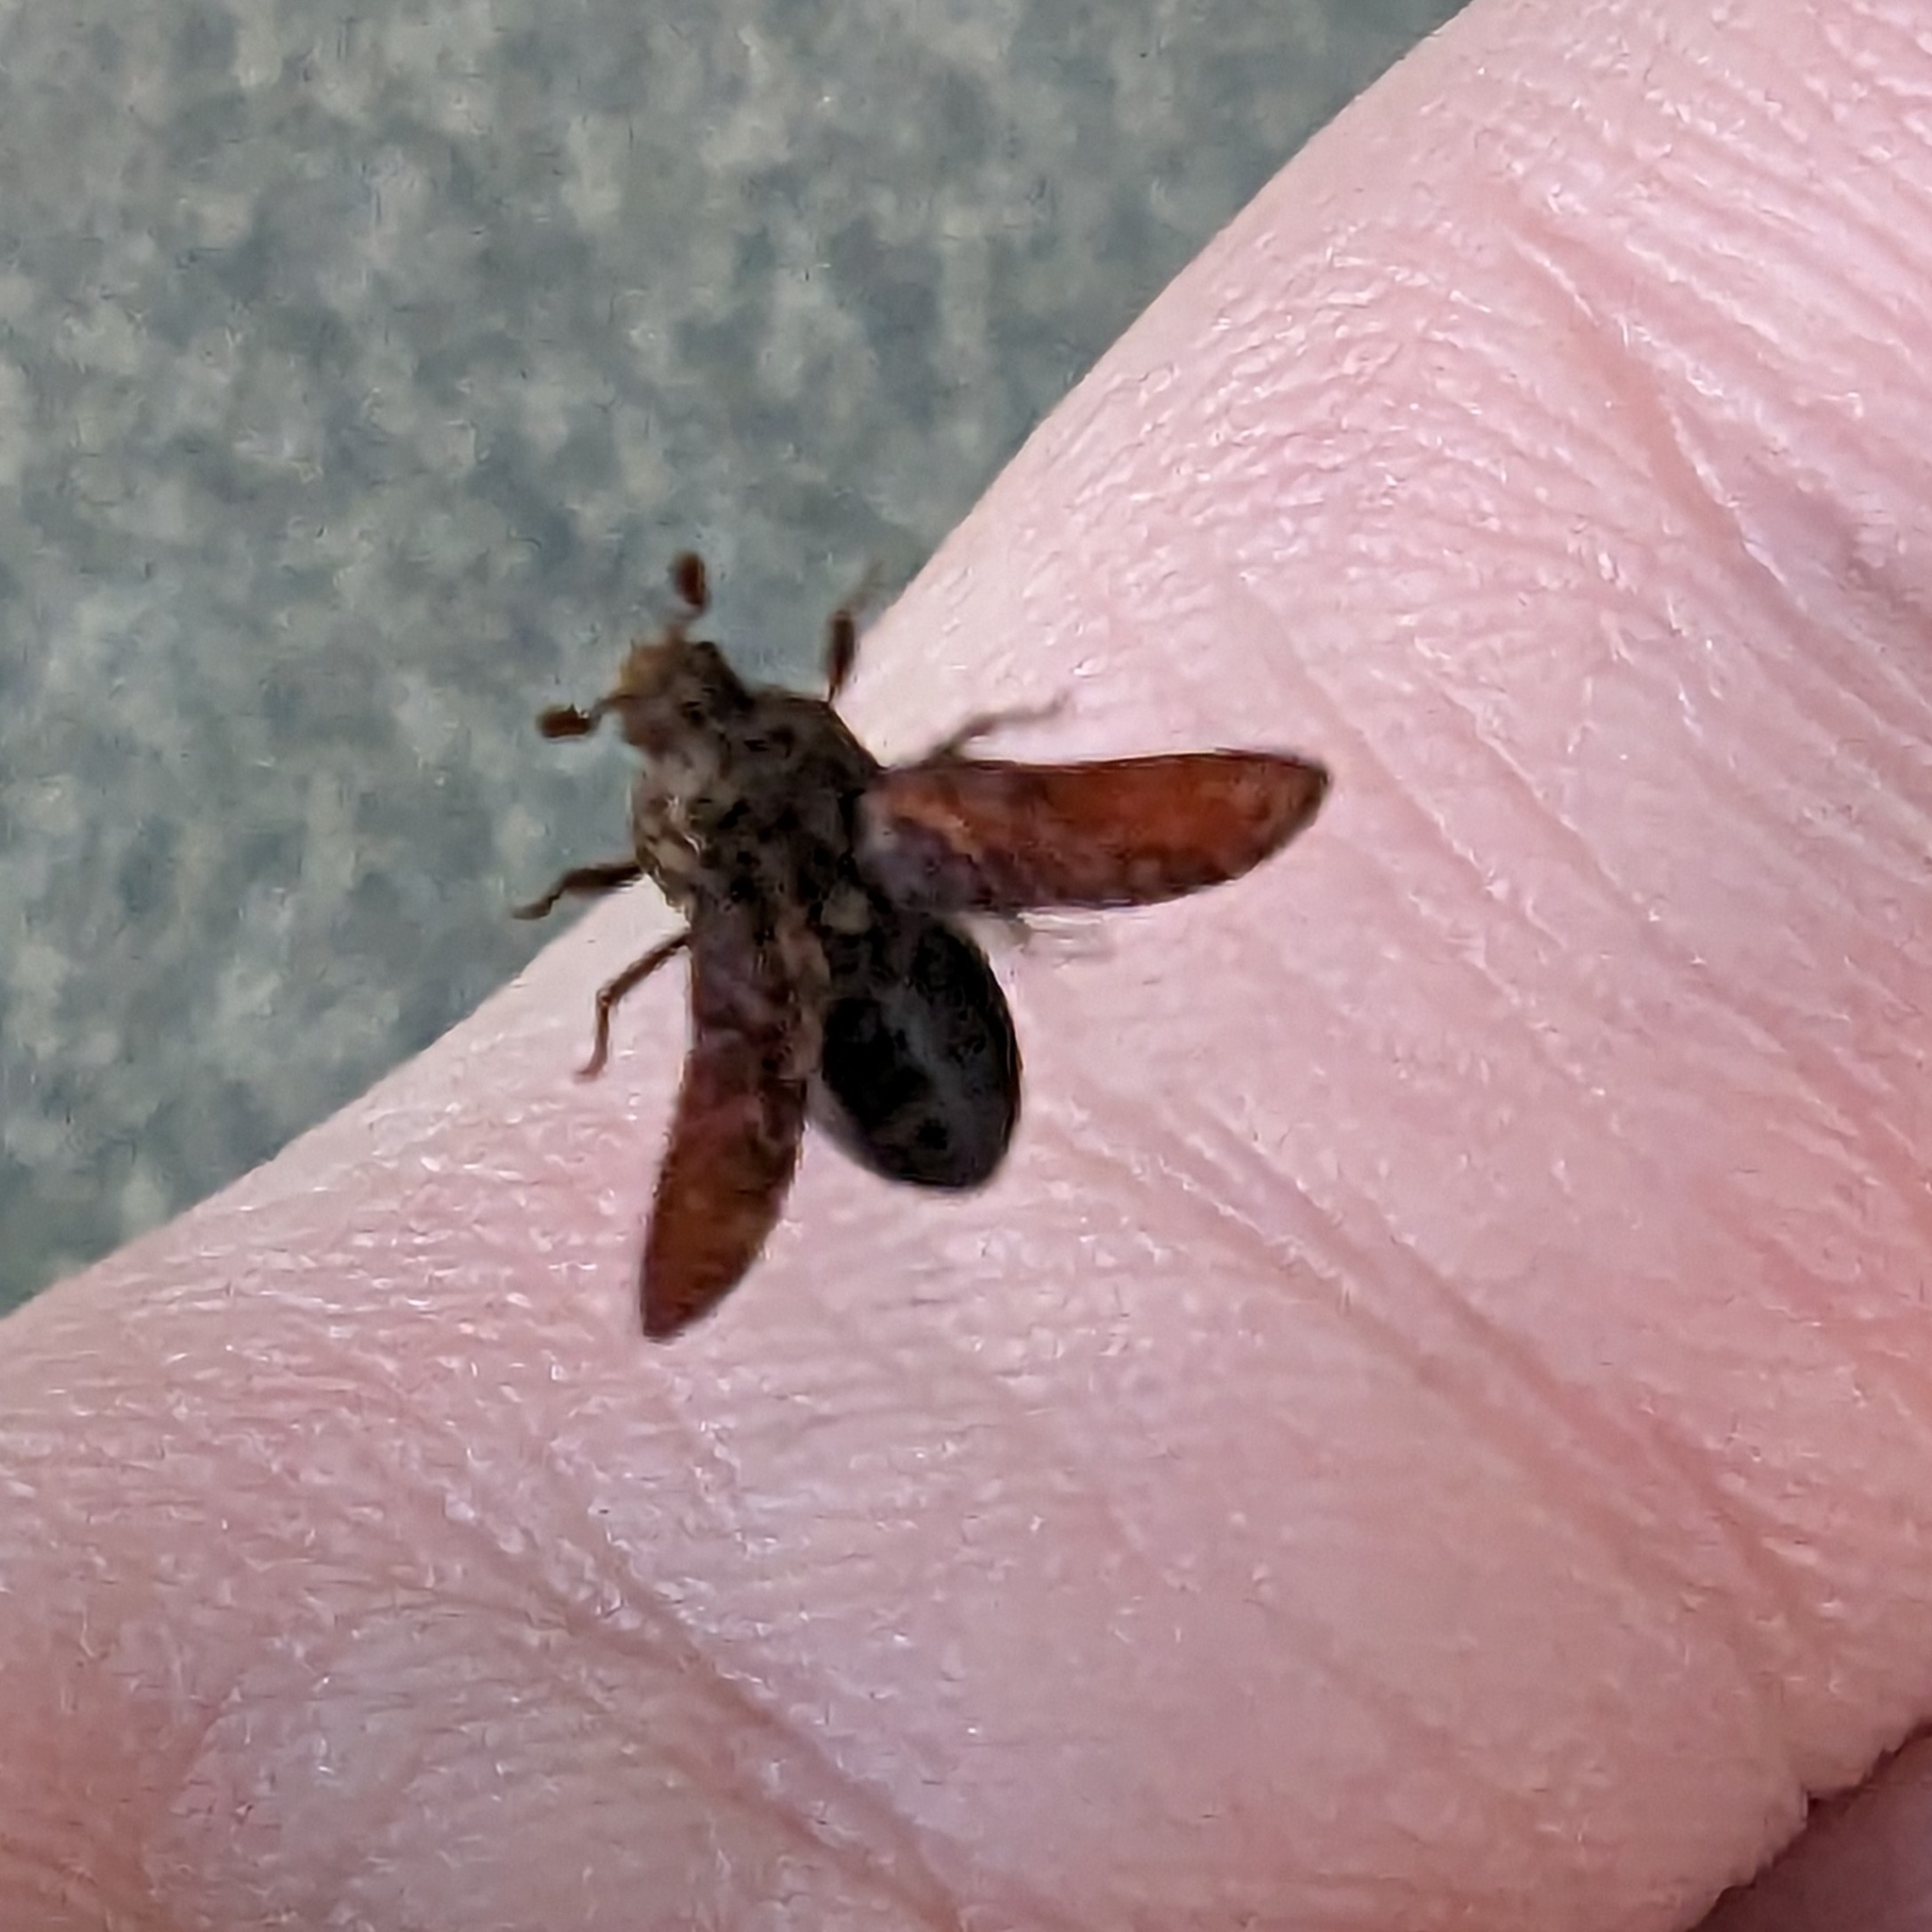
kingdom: Animalia
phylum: Arthropoda
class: Insecta
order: Coleoptera
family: Dermestidae
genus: Dermestes
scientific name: Dermestes undulatus
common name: Wavy carpet beetle
